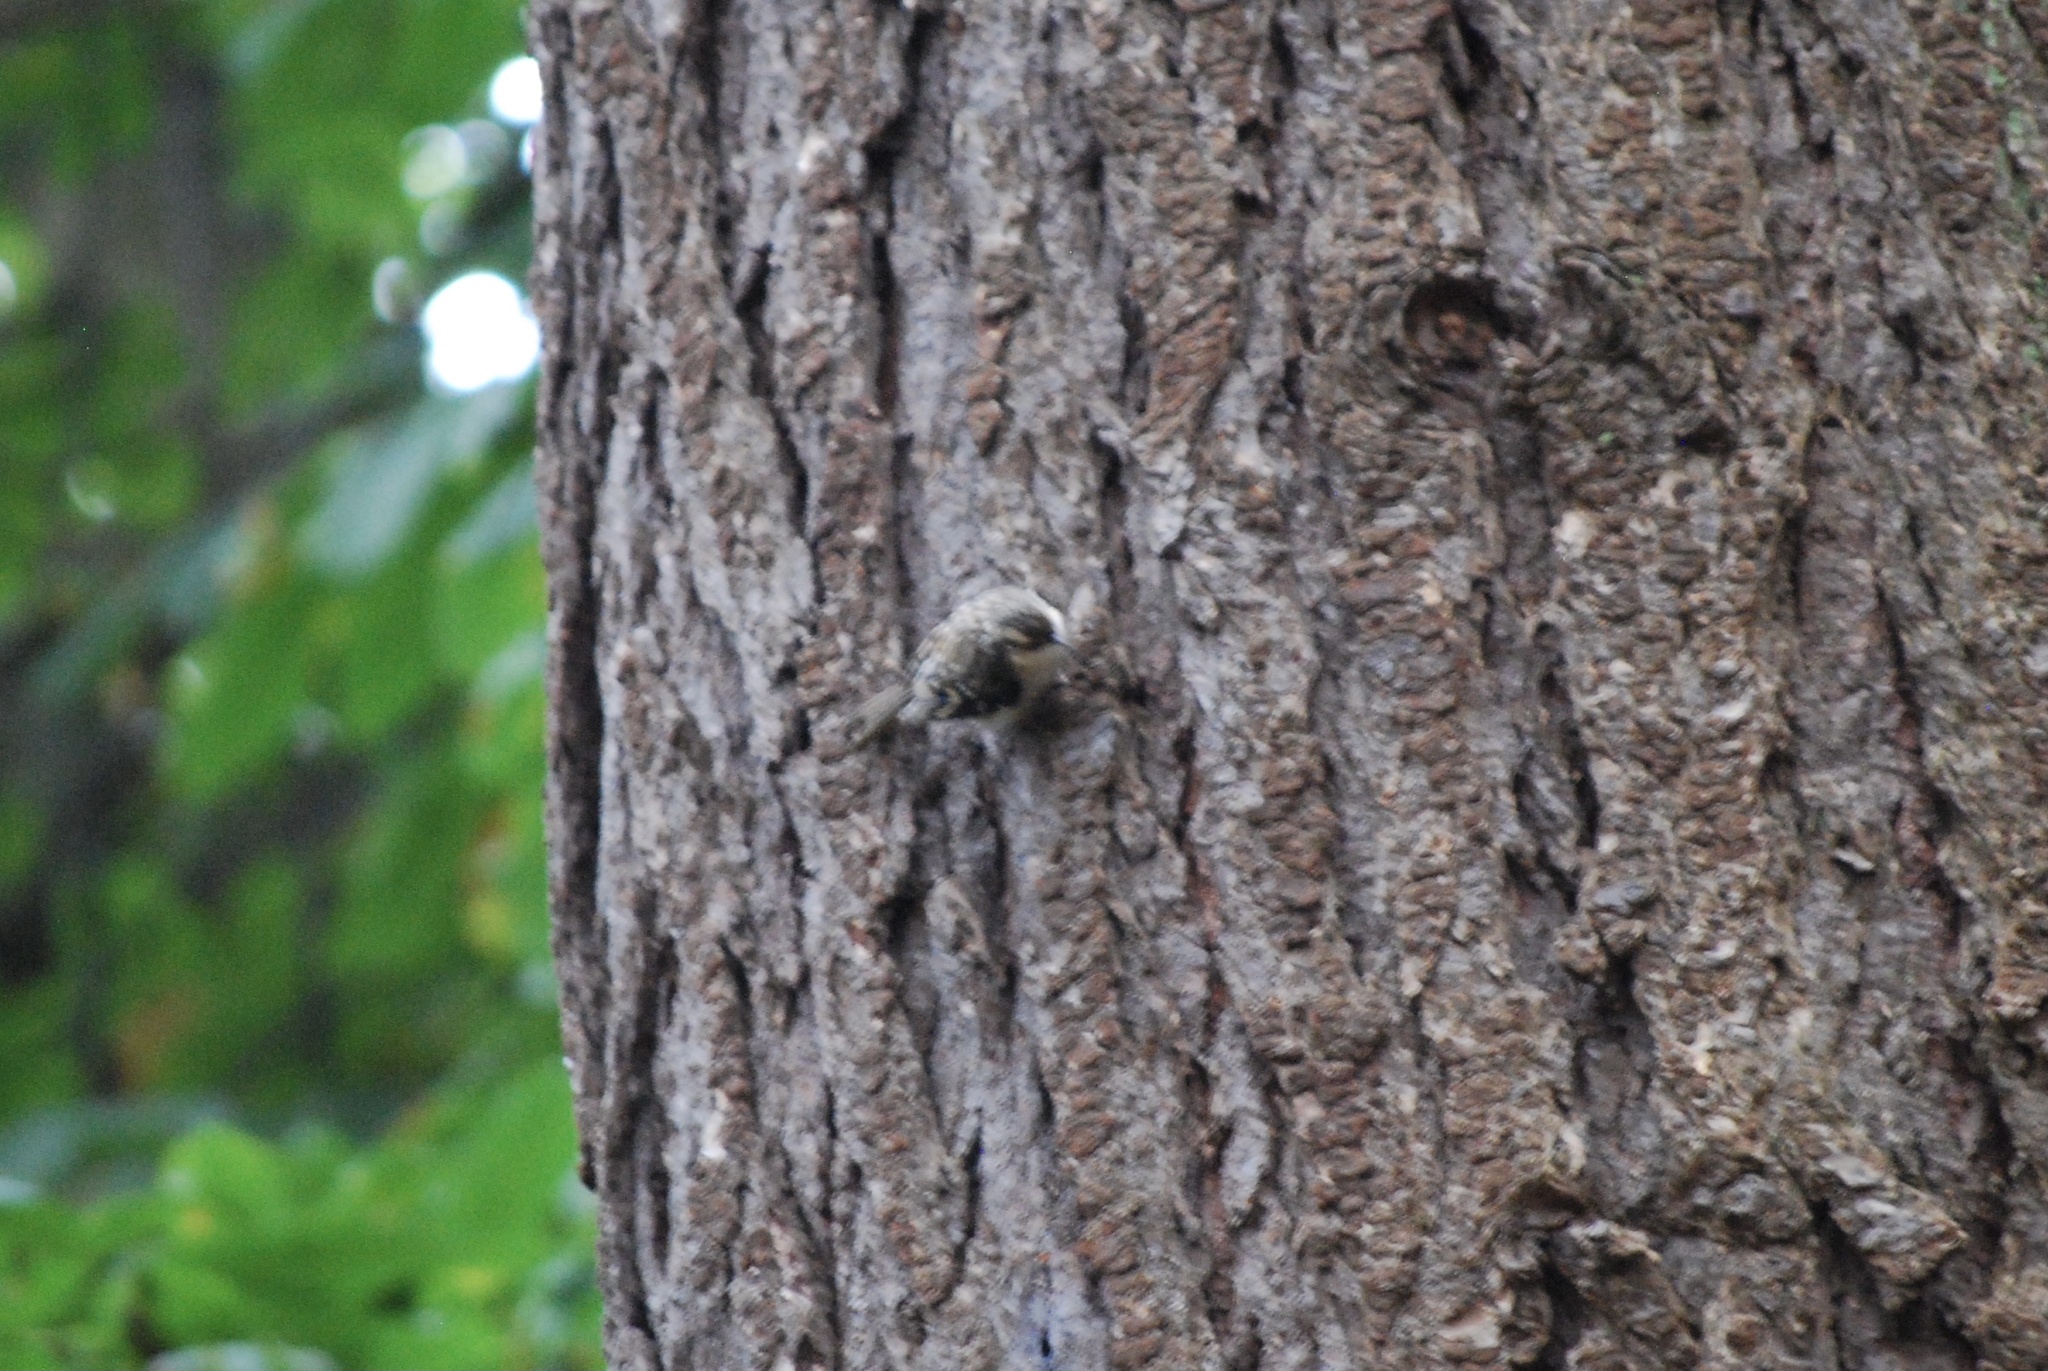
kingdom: Animalia
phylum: Chordata
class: Aves
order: Passeriformes
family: Certhiidae
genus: Certhia
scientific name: Certhia americana
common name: Brown creeper
